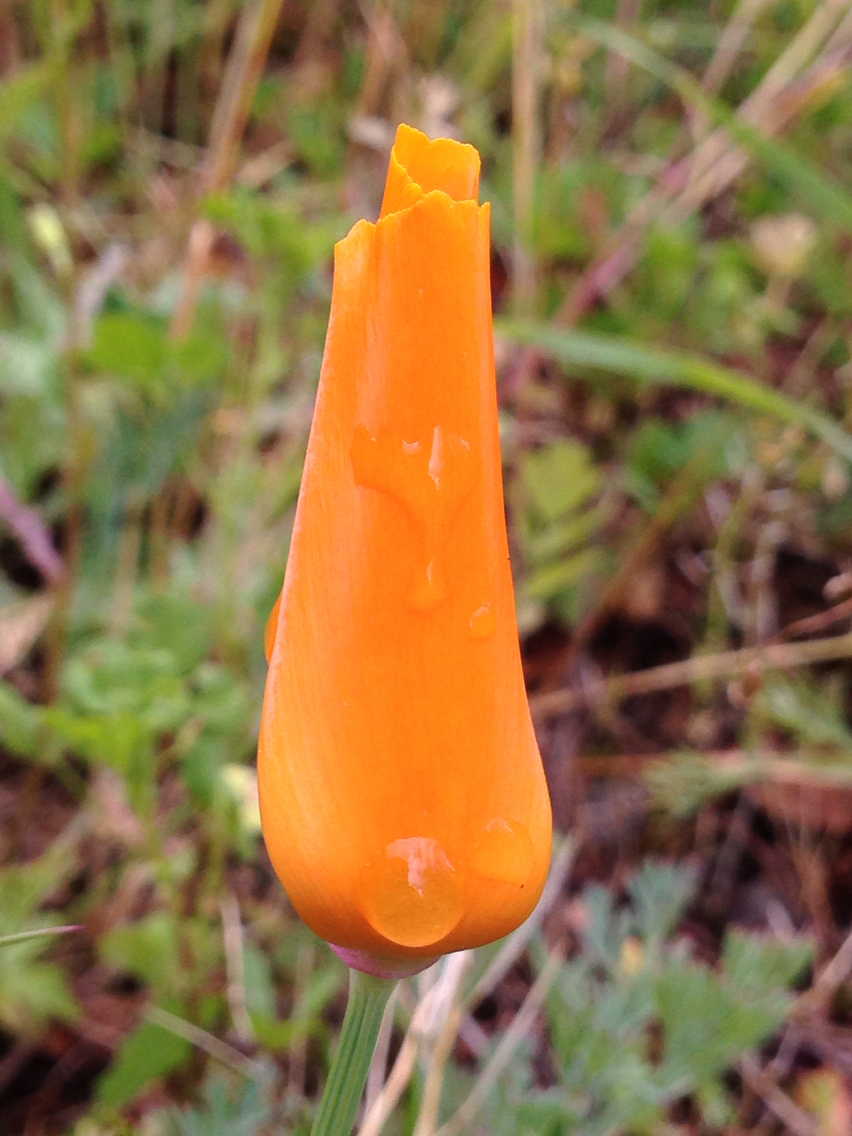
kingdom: Plantae
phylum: Tracheophyta
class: Magnoliopsida
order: Ranunculales
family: Papaveraceae
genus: Eschscholzia
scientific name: Eschscholzia californica
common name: California poppy
